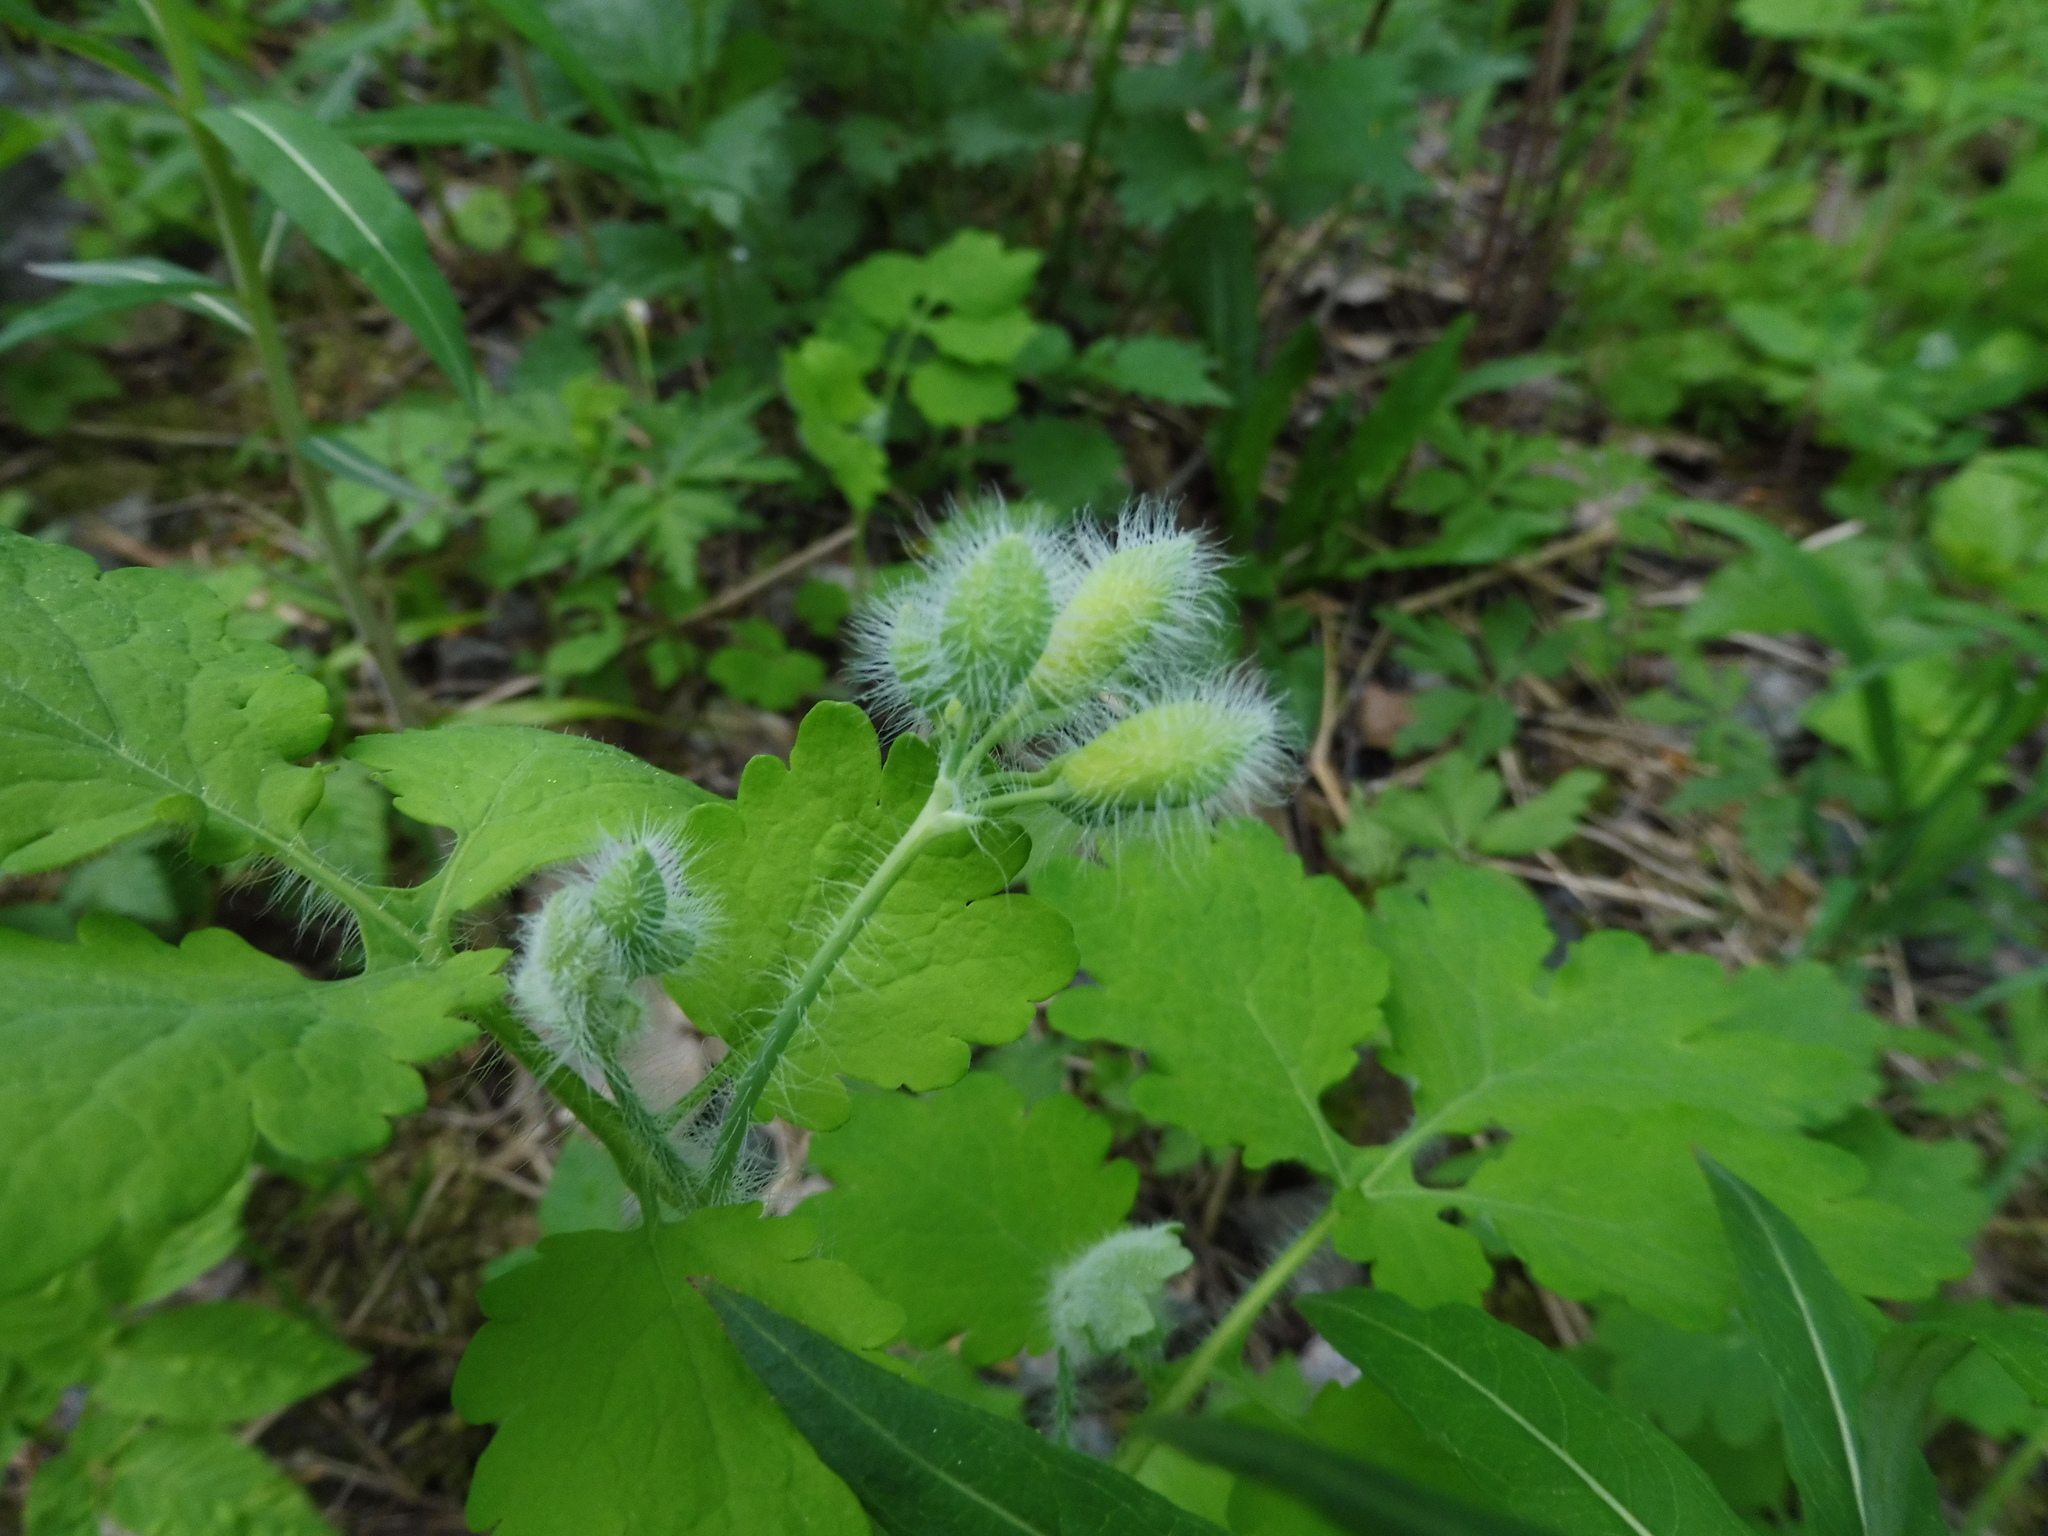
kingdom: Plantae
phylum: Tracheophyta
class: Magnoliopsida
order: Ranunculales
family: Papaveraceae
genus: Chelidonium
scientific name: Chelidonium majus
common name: Greater celandine
